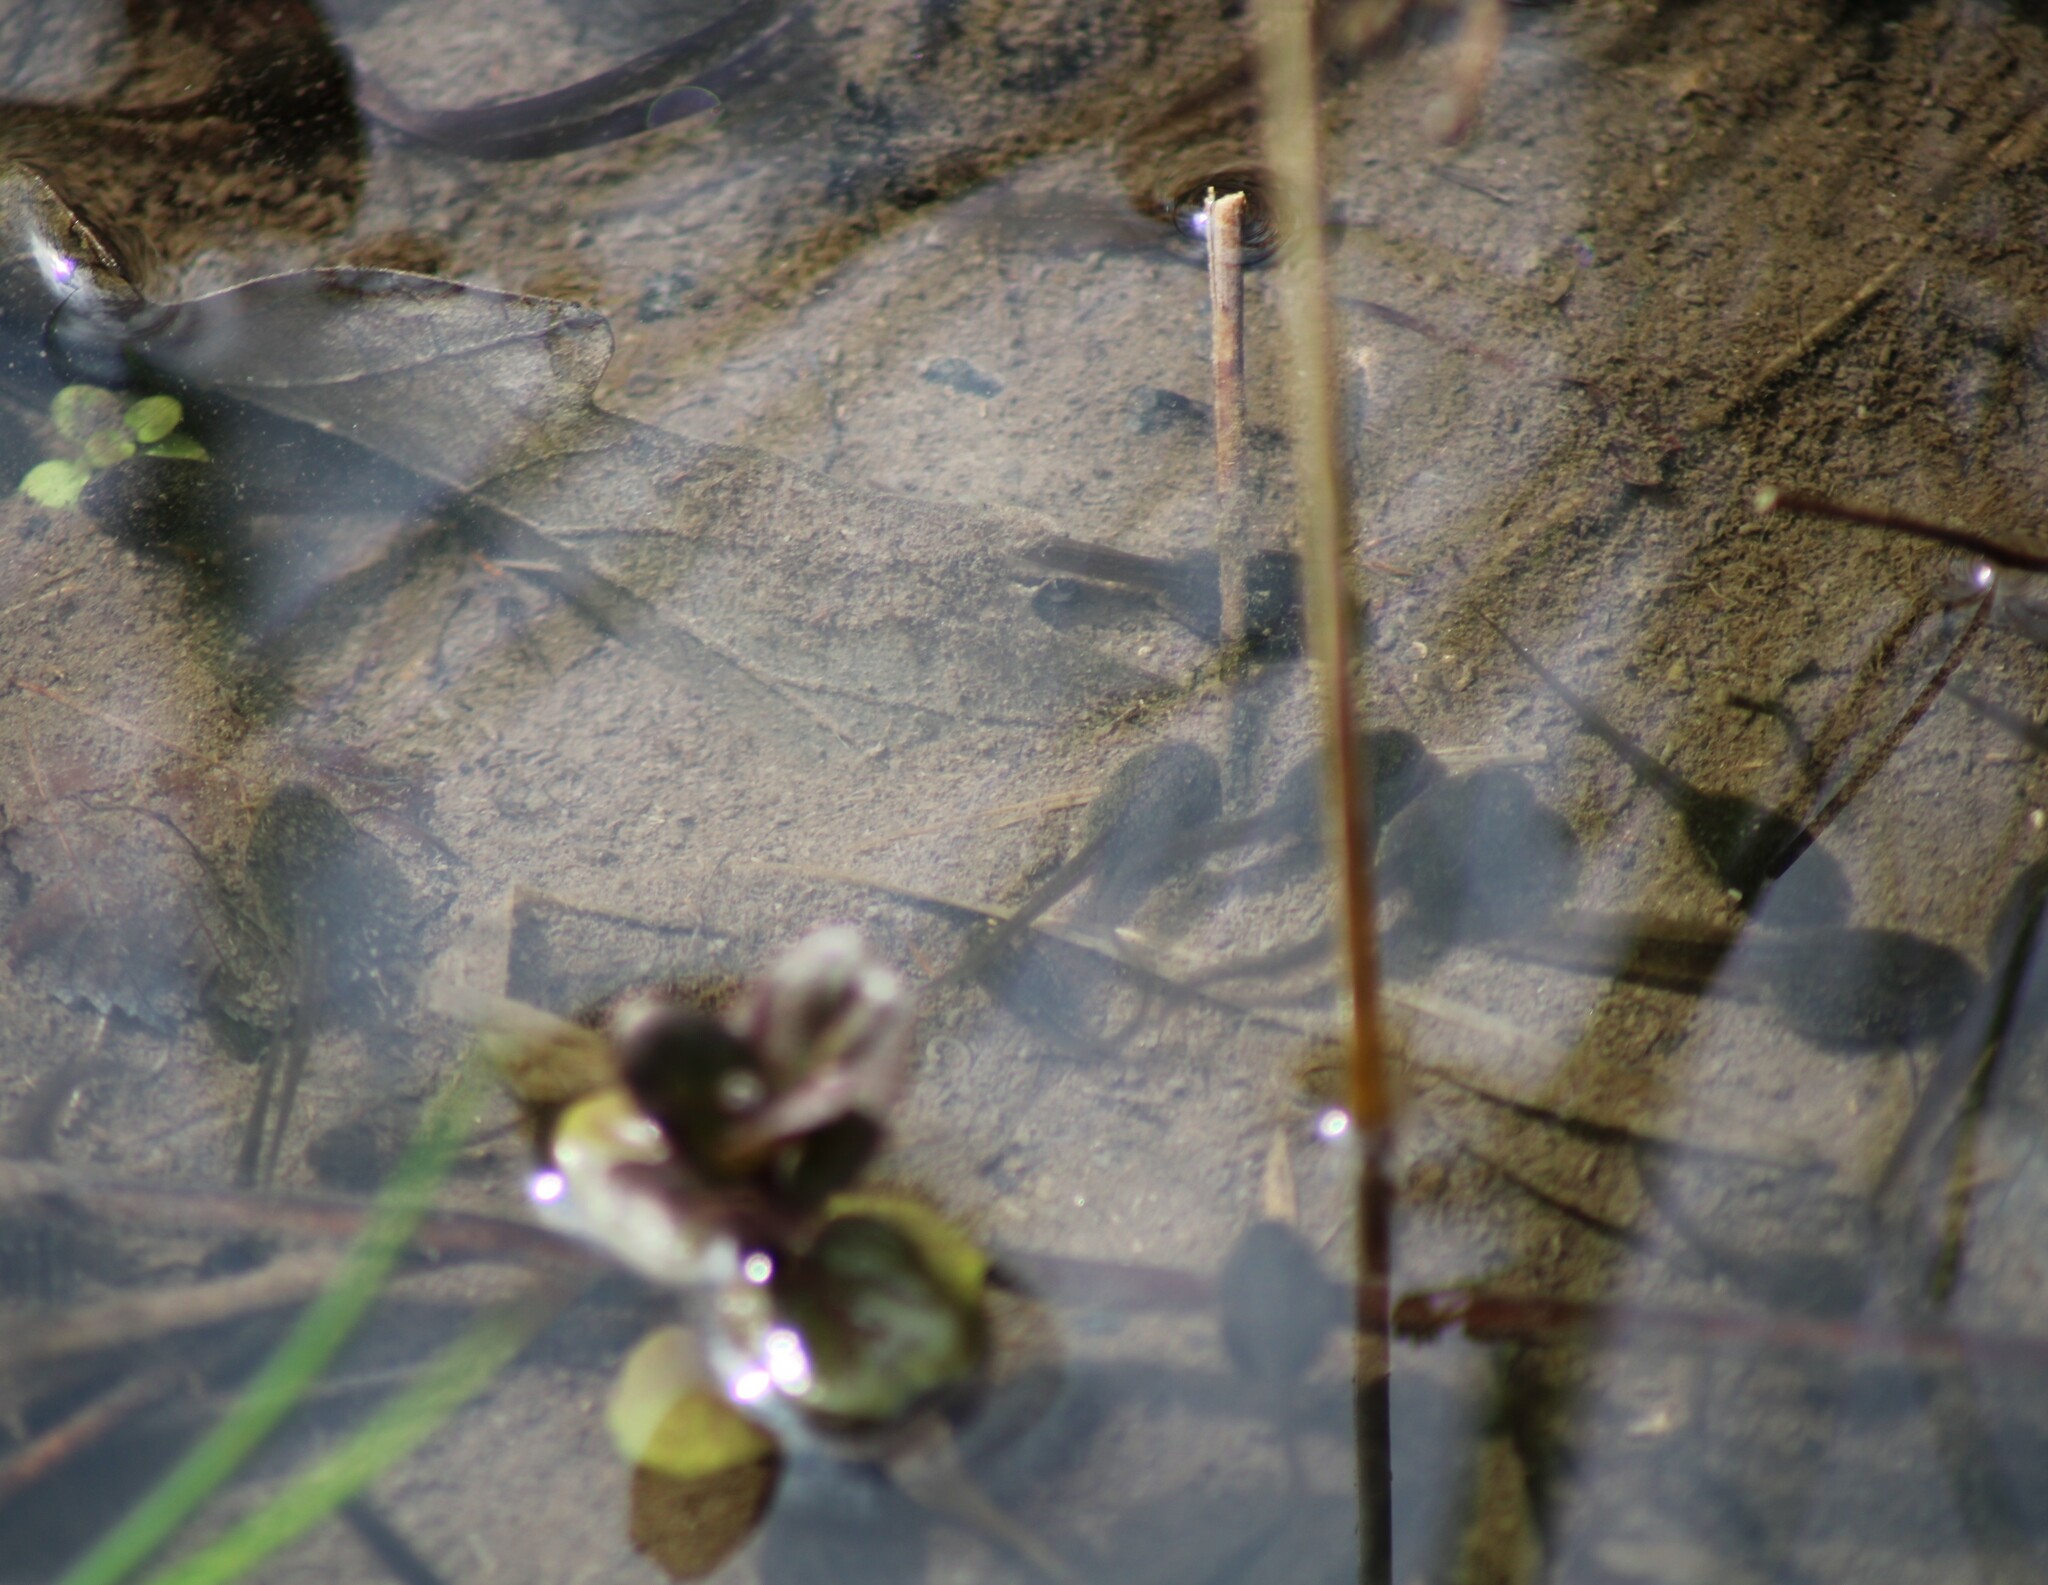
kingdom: Animalia
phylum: Chordata
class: Amphibia
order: Anura
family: Bombinatoridae
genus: Bombina
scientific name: Bombina variegata
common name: Yellow-bellied toad
